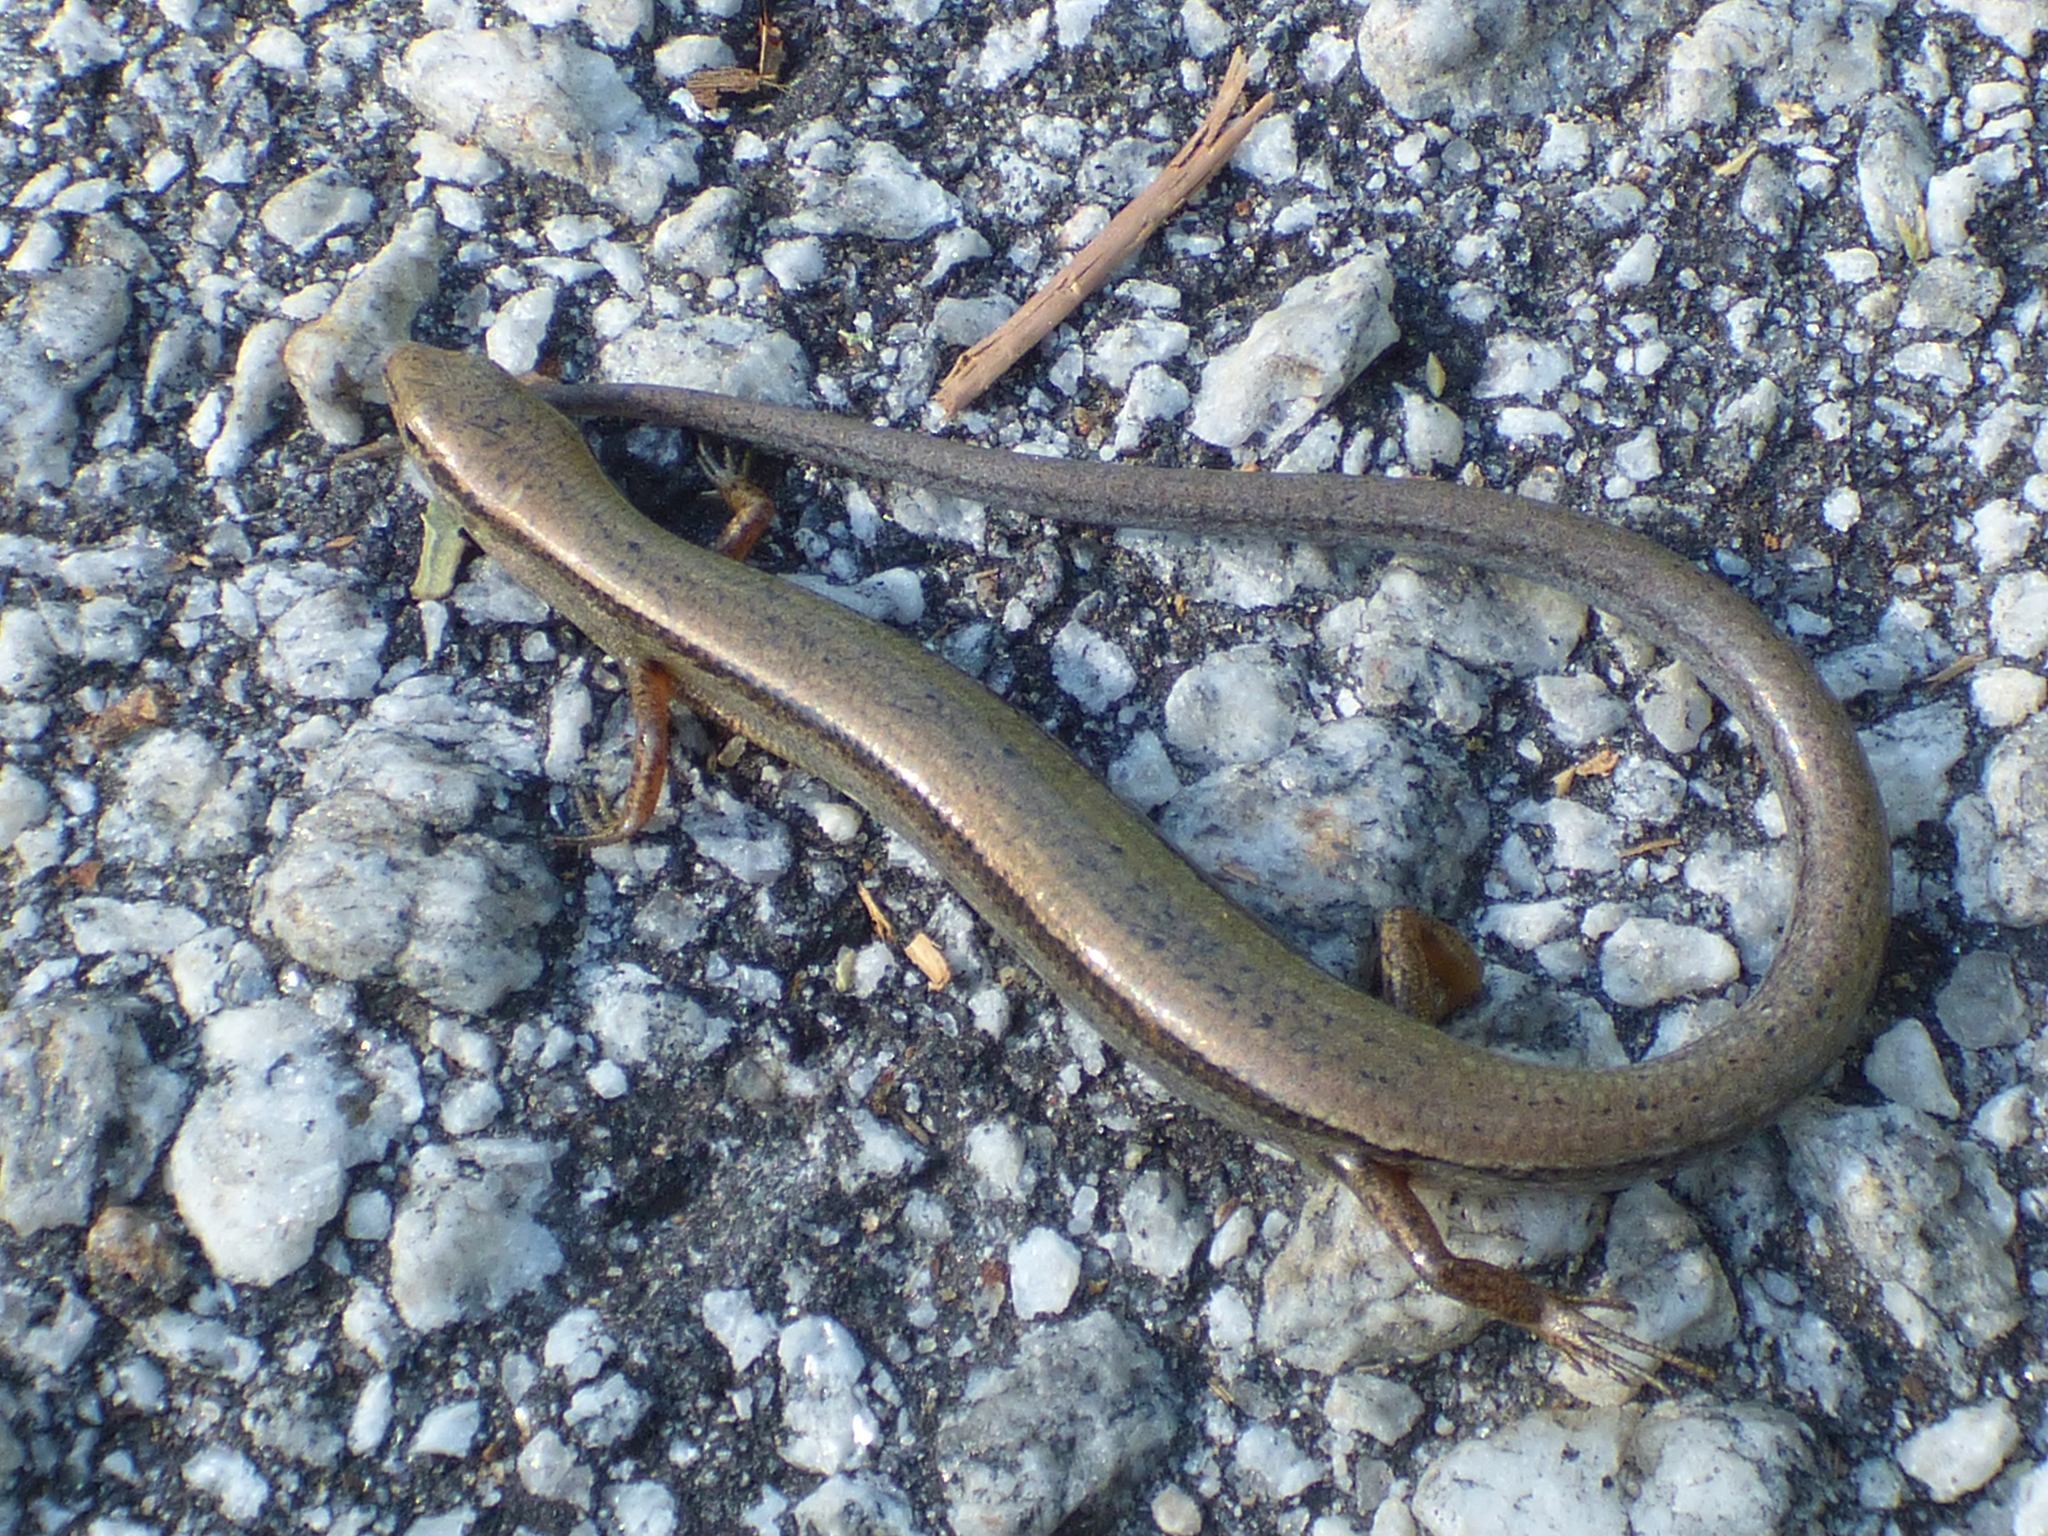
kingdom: Animalia
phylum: Chordata
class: Squamata
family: Scincidae
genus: Scincella
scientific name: Scincella lateralis
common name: Ground skink
